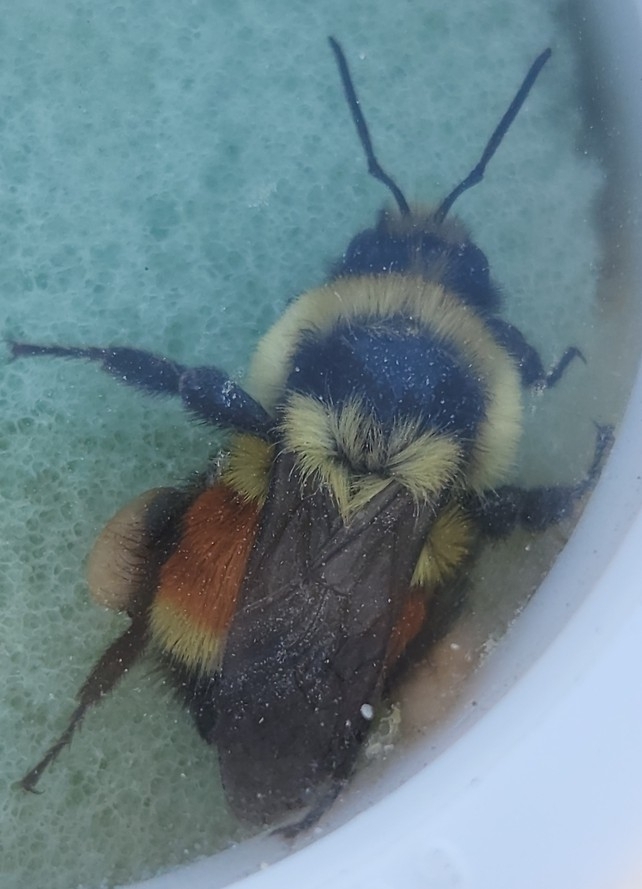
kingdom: Animalia
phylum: Arthropoda
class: Insecta
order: Hymenoptera
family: Apidae
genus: Bombus
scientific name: Bombus huntii
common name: Hunt bumble bee
